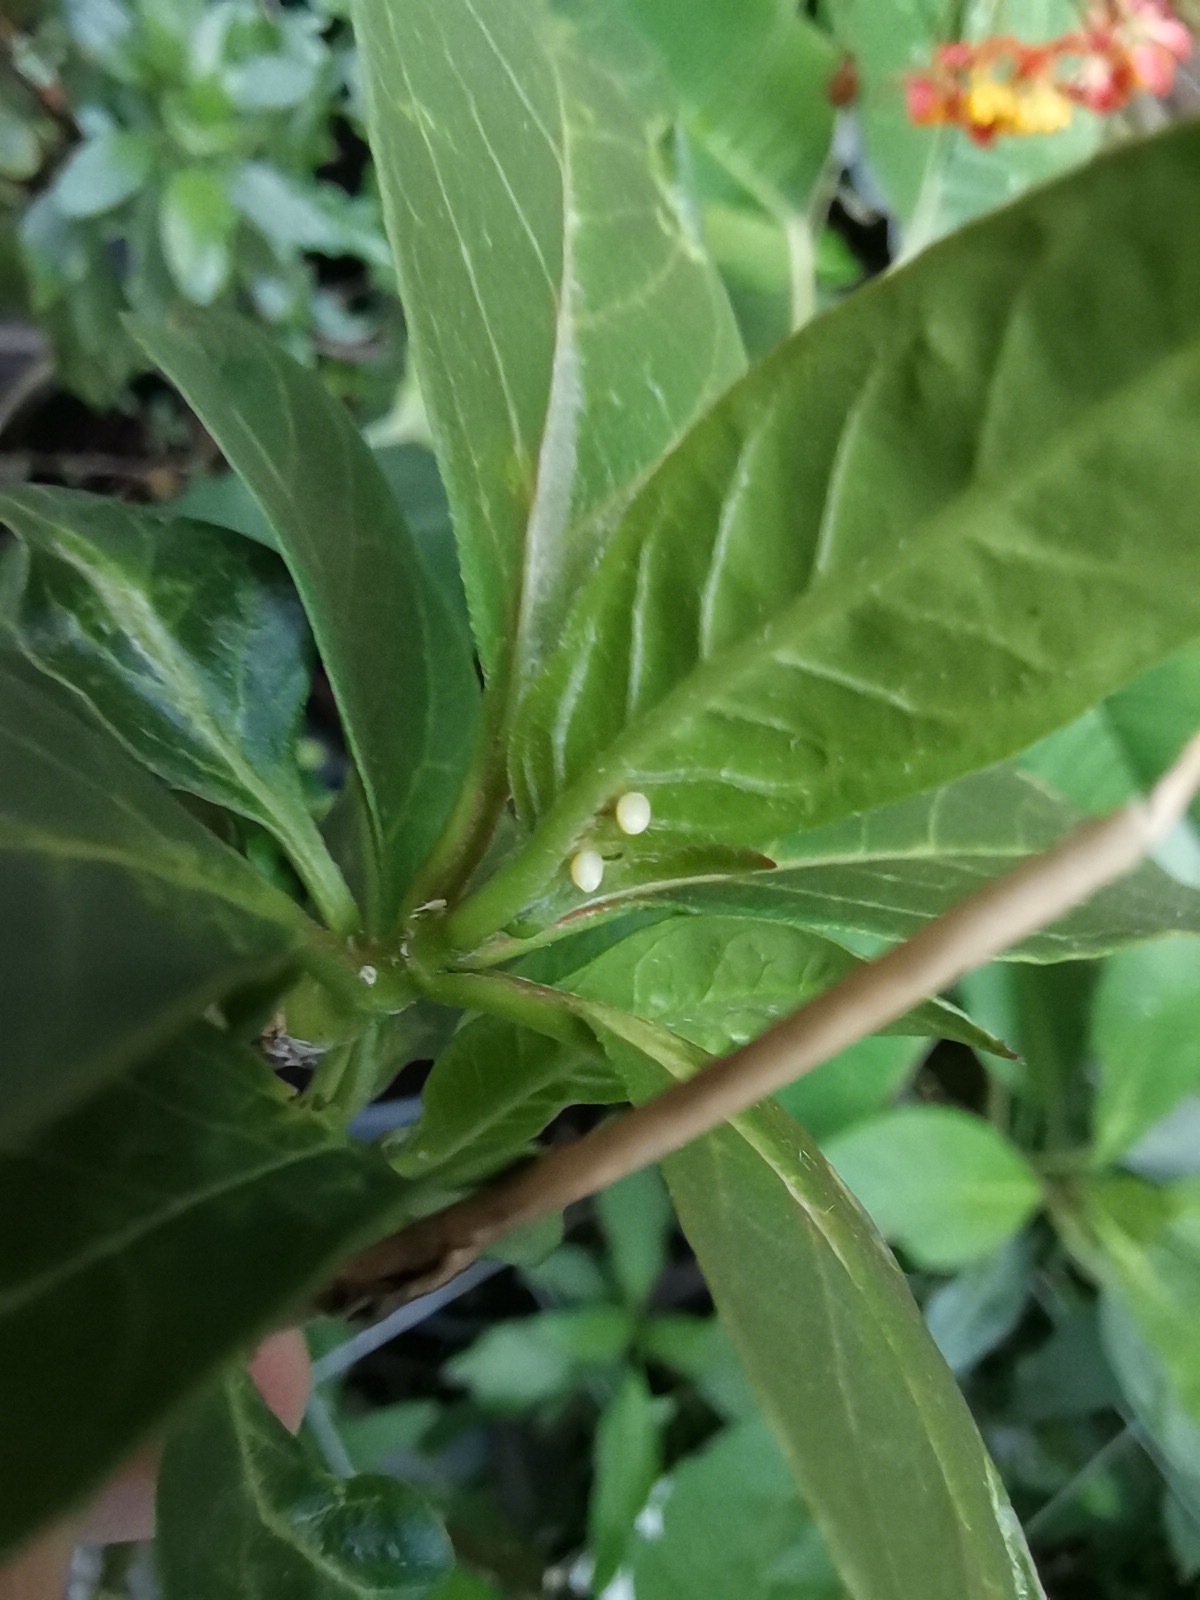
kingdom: Animalia
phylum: Arthropoda
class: Insecta
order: Lepidoptera
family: Nymphalidae
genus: Danaus
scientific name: Danaus plexippus
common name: Monarch
